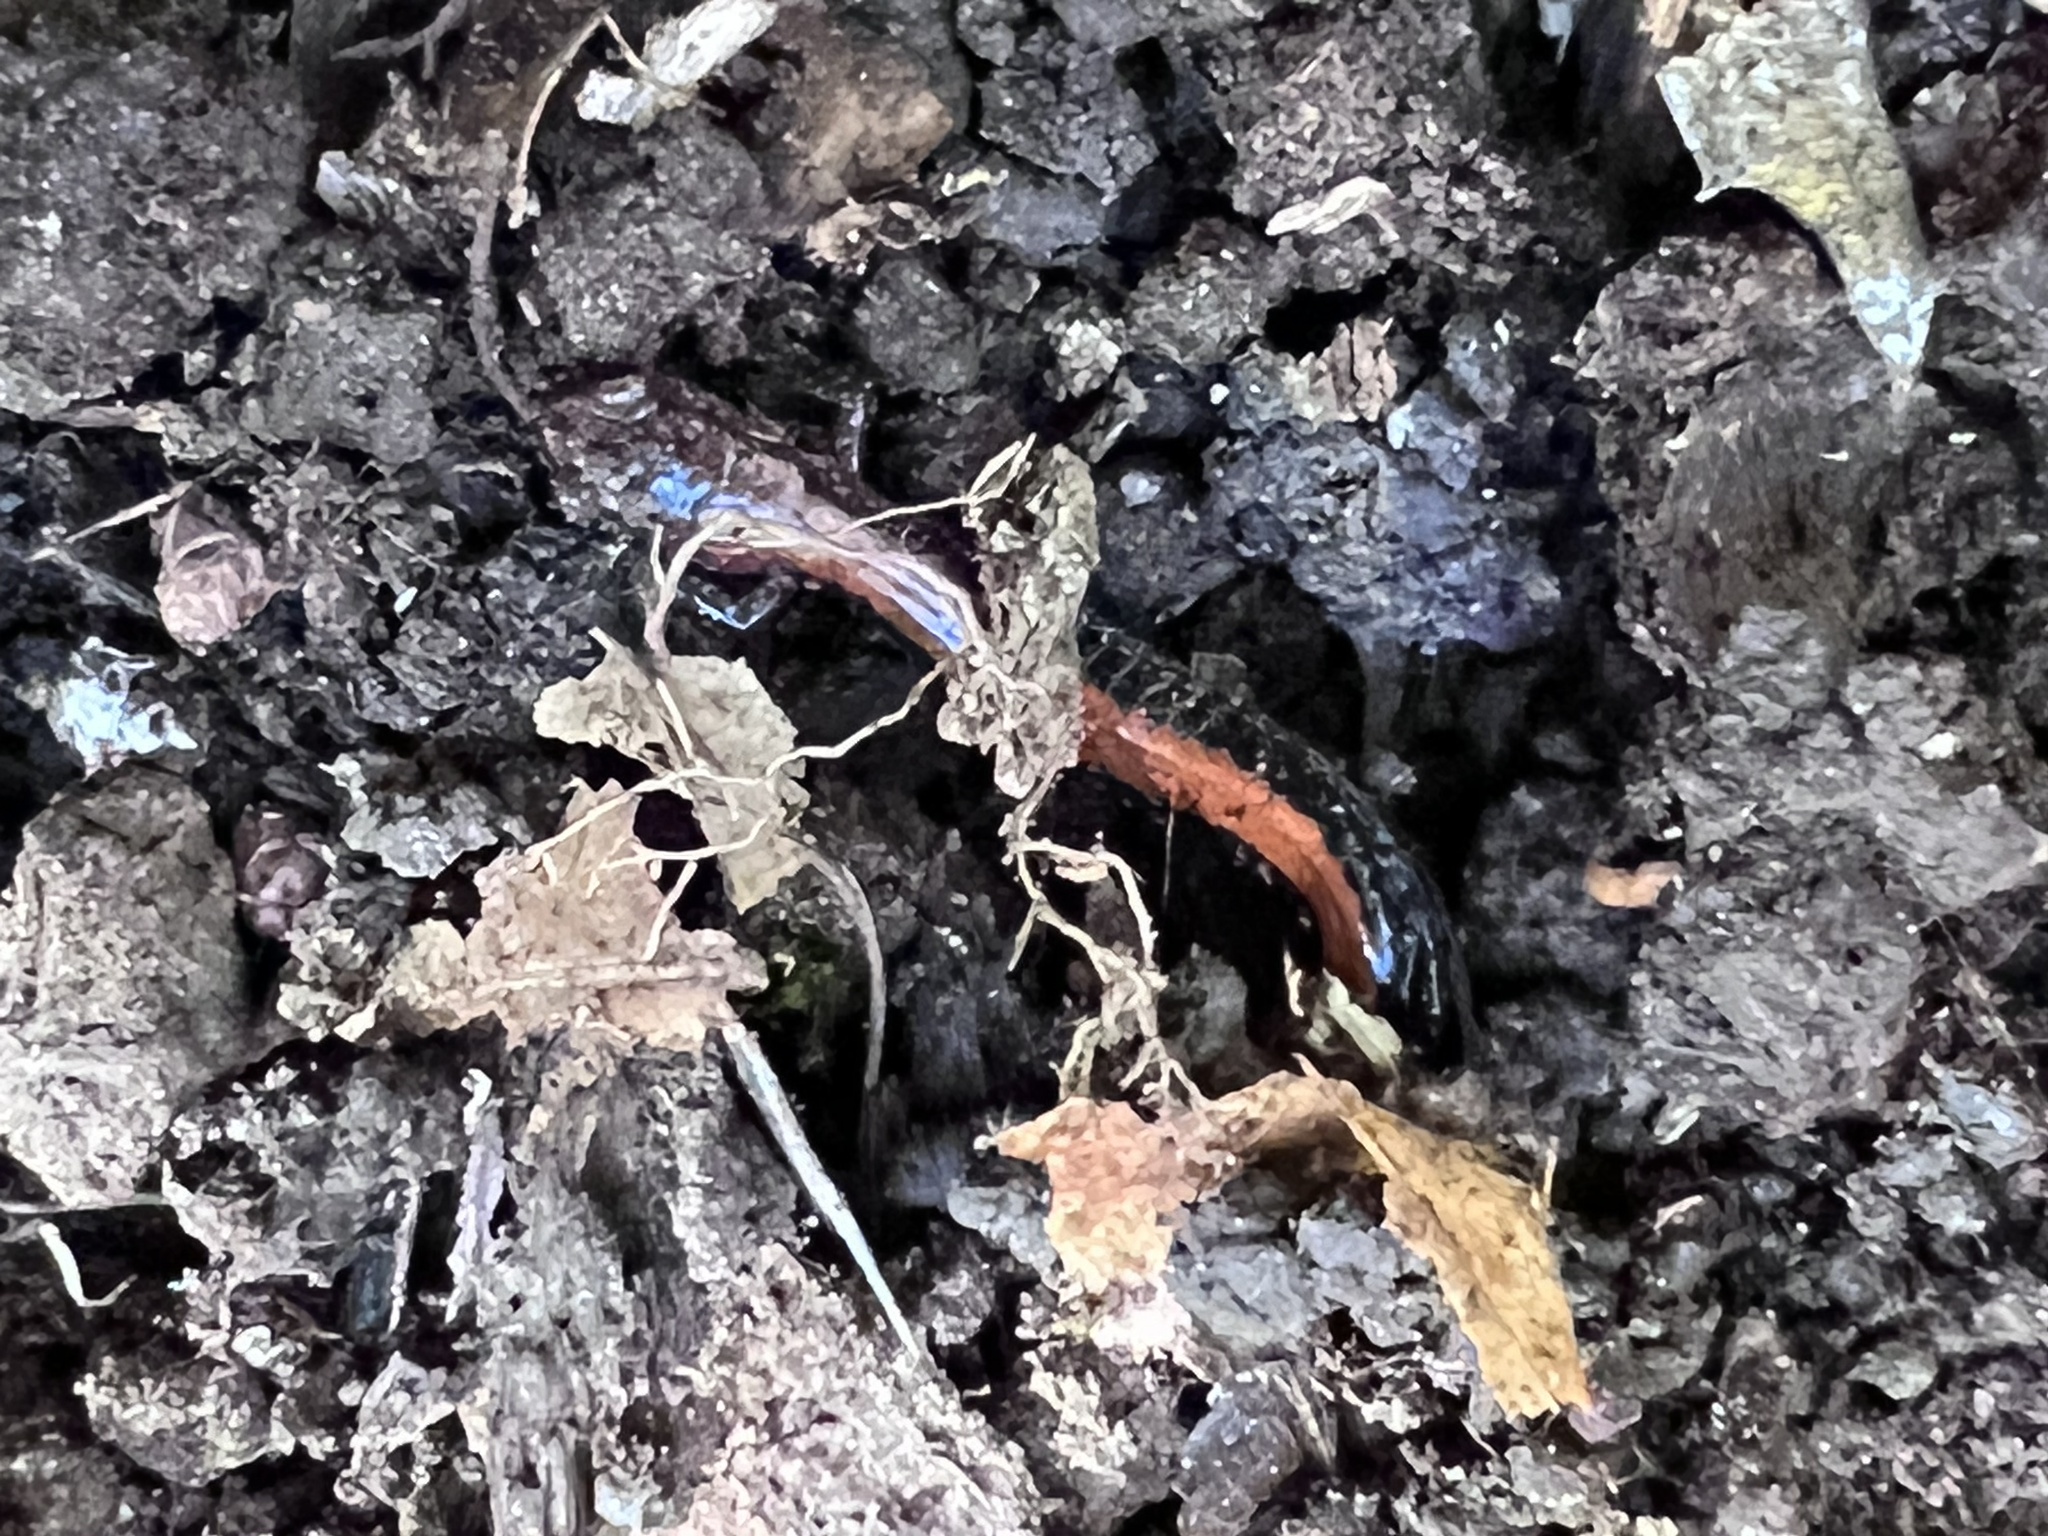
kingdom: Animalia
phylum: Chordata
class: Amphibia
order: Caudata
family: Plethodontidae
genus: Plethodon
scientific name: Plethodon cinereus
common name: Redback salamander
